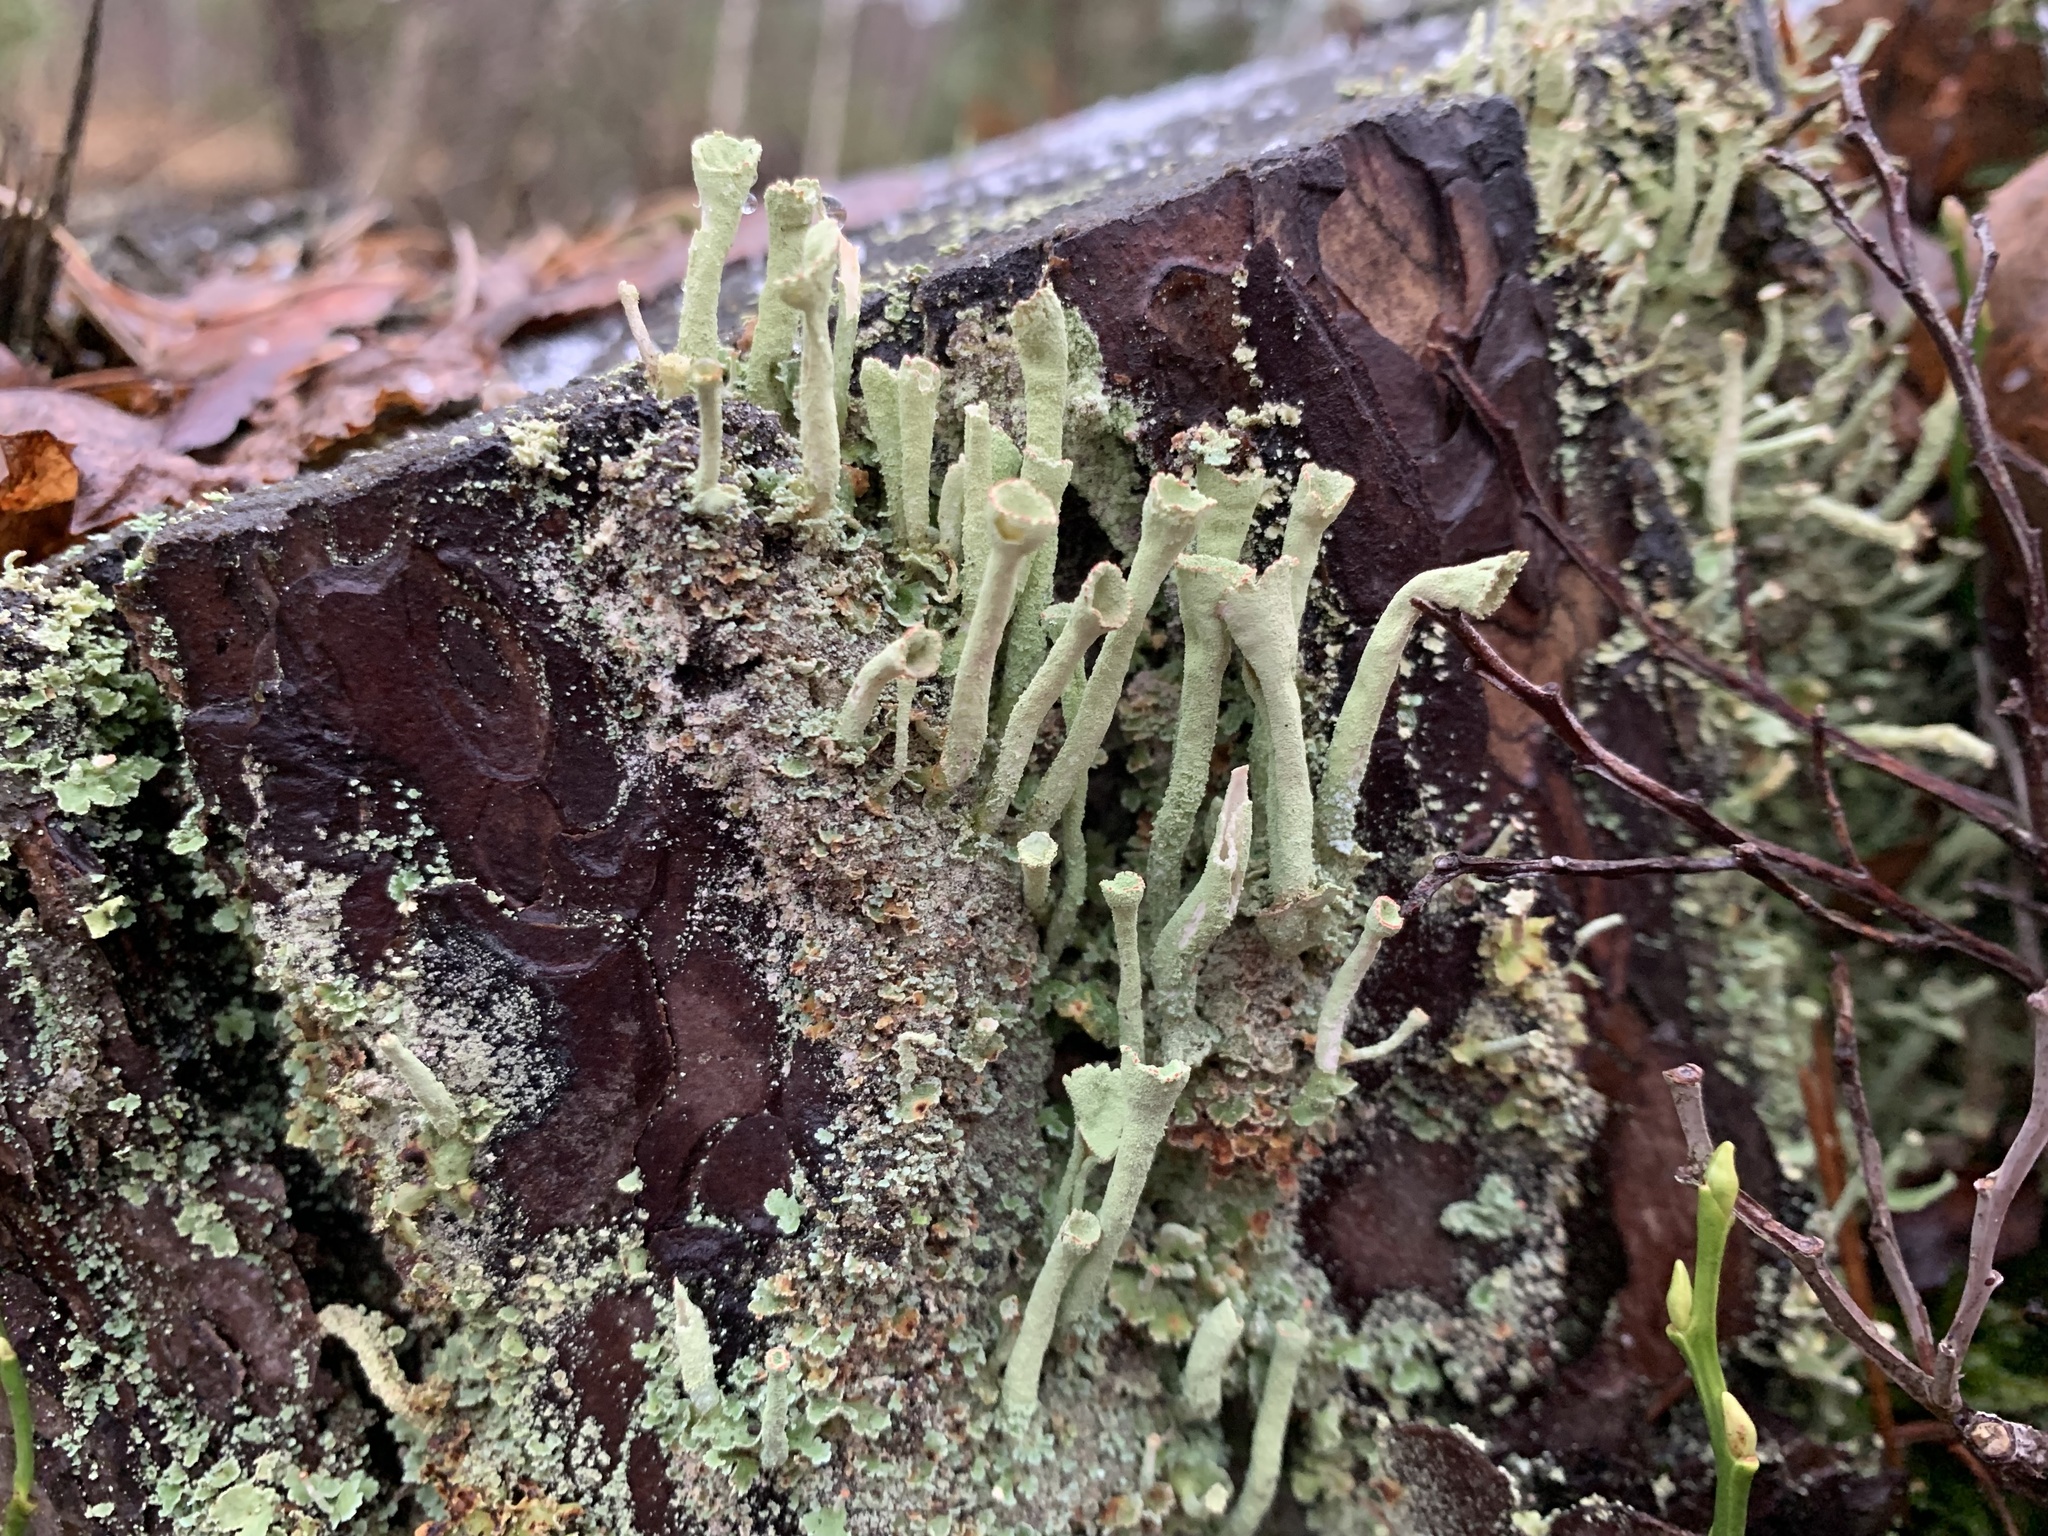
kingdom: Fungi
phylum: Ascomycota
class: Lecanoromycetes
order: Lecanorales
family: Cladoniaceae
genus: Cladonia
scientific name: Cladonia fimbriata
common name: Powdered trumpet lichen
